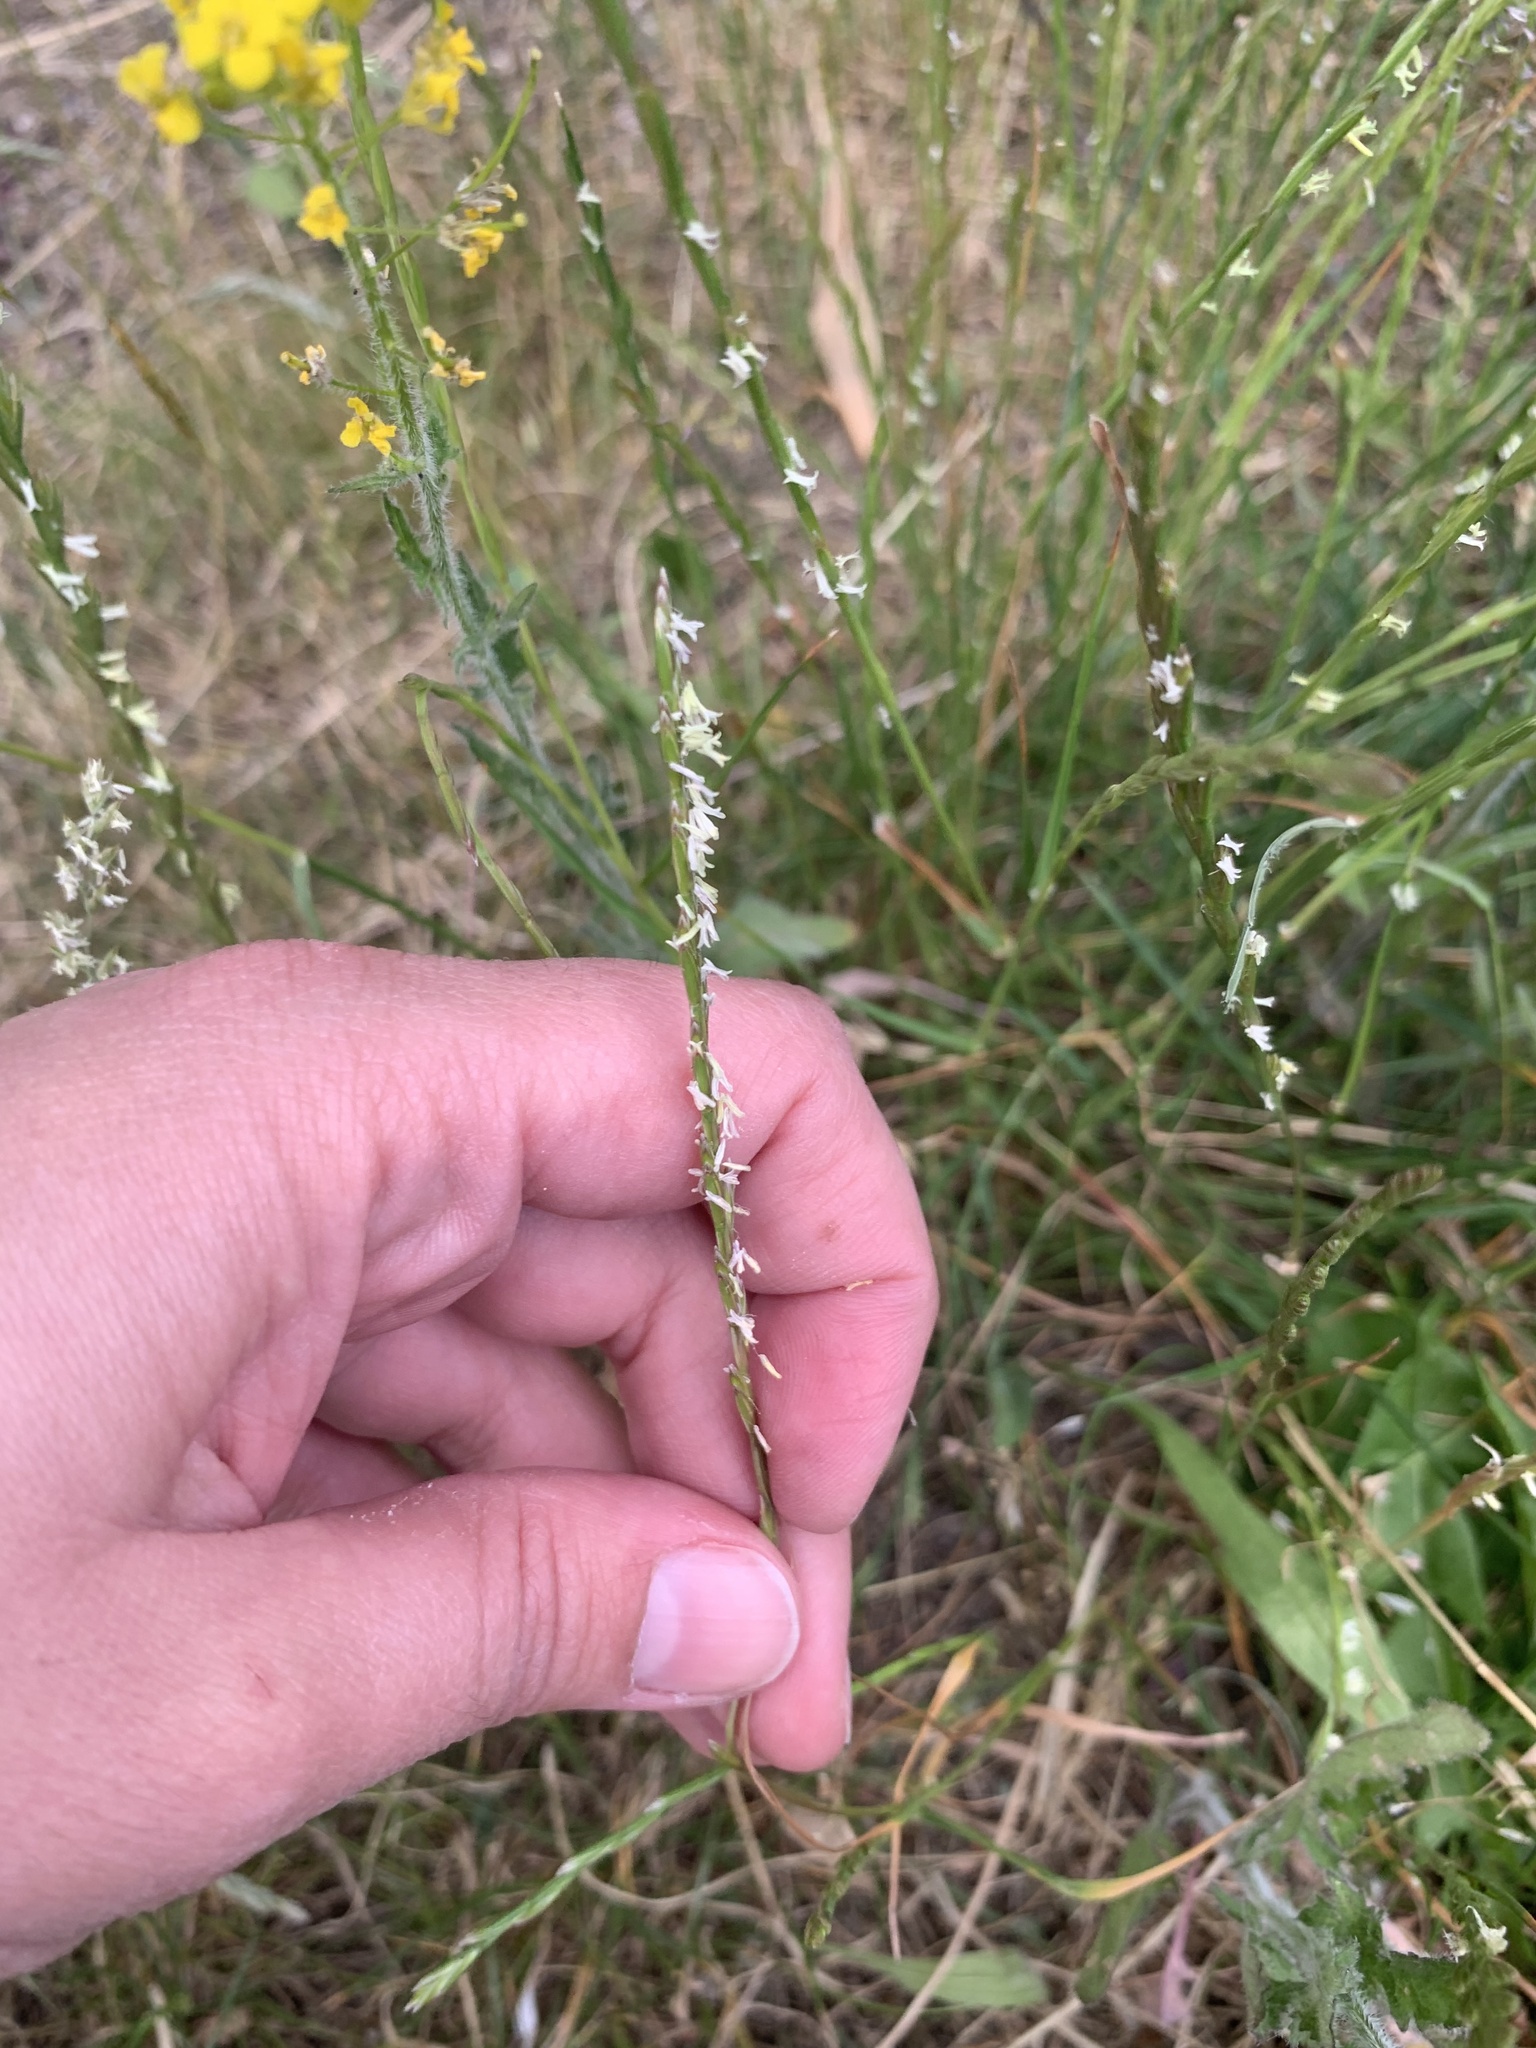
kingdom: Plantae
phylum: Tracheophyta
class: Liliopsida
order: Poales
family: Poaceae
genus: Lolium
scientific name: Lolium perenne
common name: Perennial ryegrass
